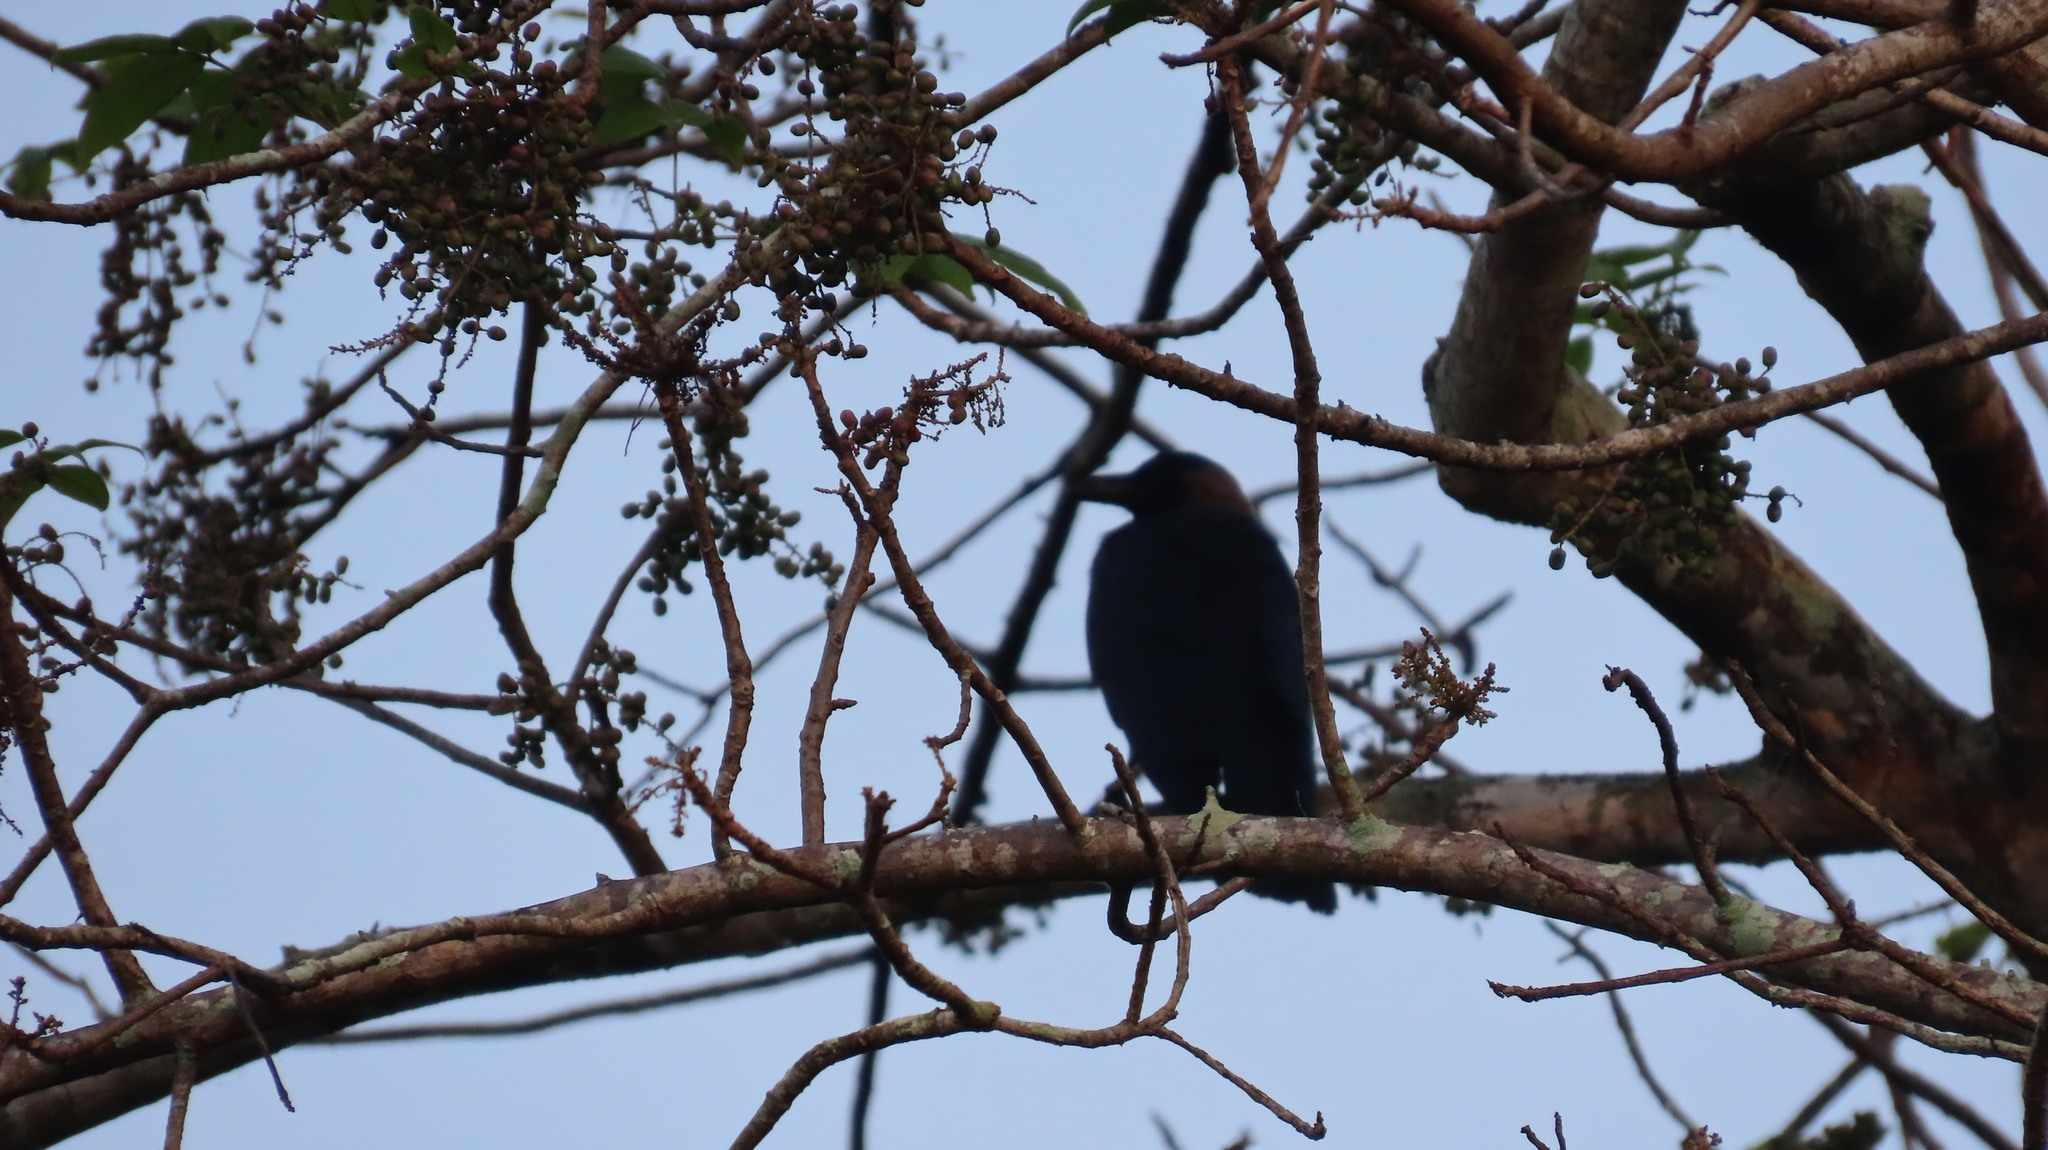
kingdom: Animalia
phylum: Chordata
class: Aves
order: Passeriformes
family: Corvidae
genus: Corvus
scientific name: Corvus splendens
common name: House crow
